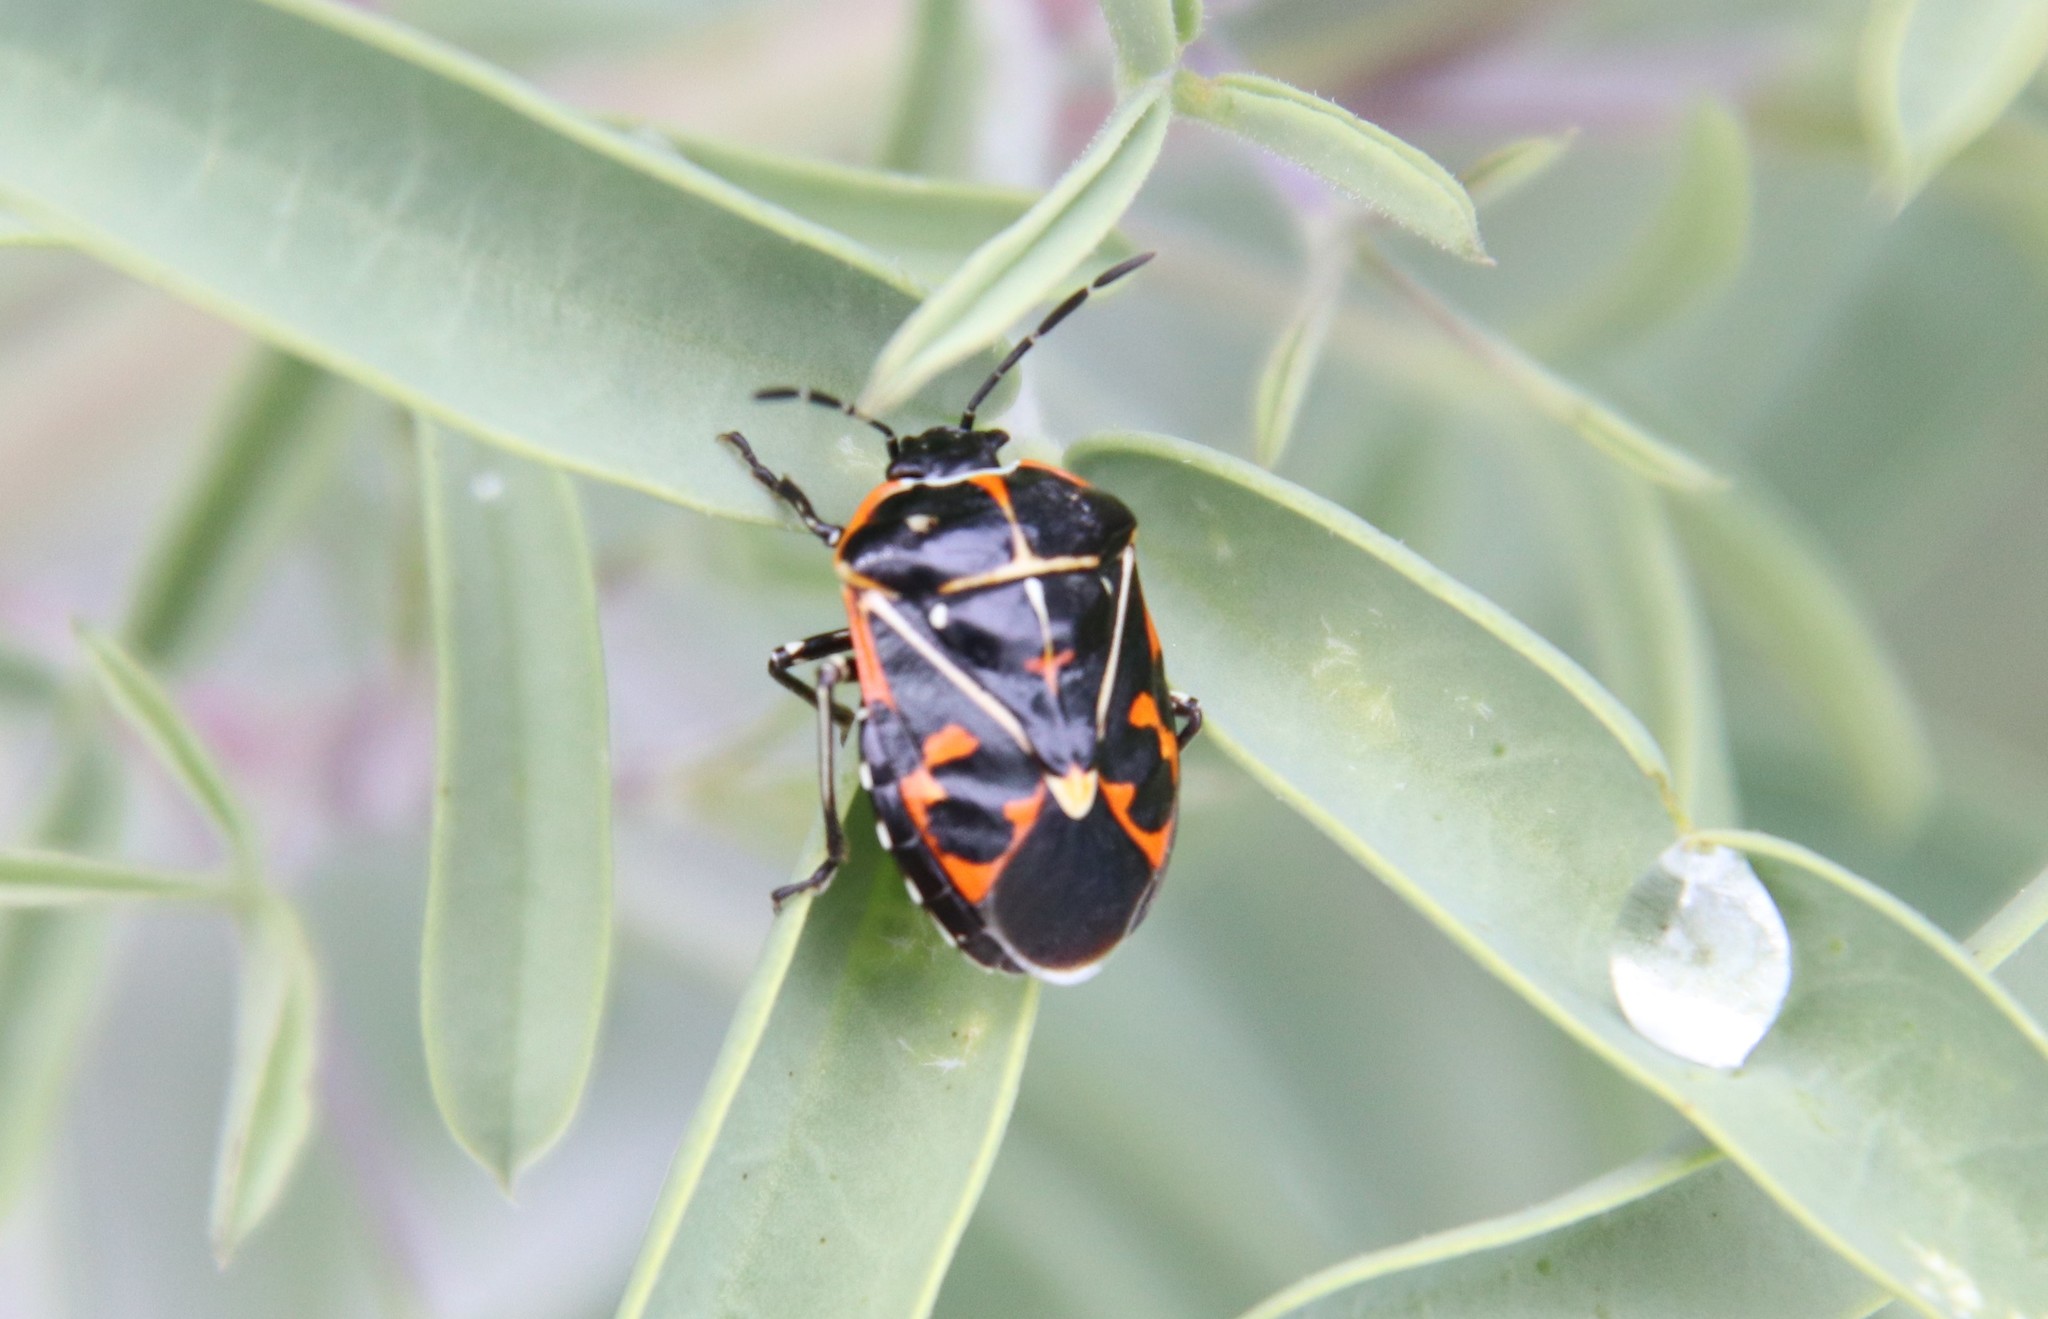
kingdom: Animalia
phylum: Arthropoda
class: Insecta
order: Hemiptera
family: Pentatomidae
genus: Murgantia
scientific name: Murgantia histrionica
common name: Harlequin bug
